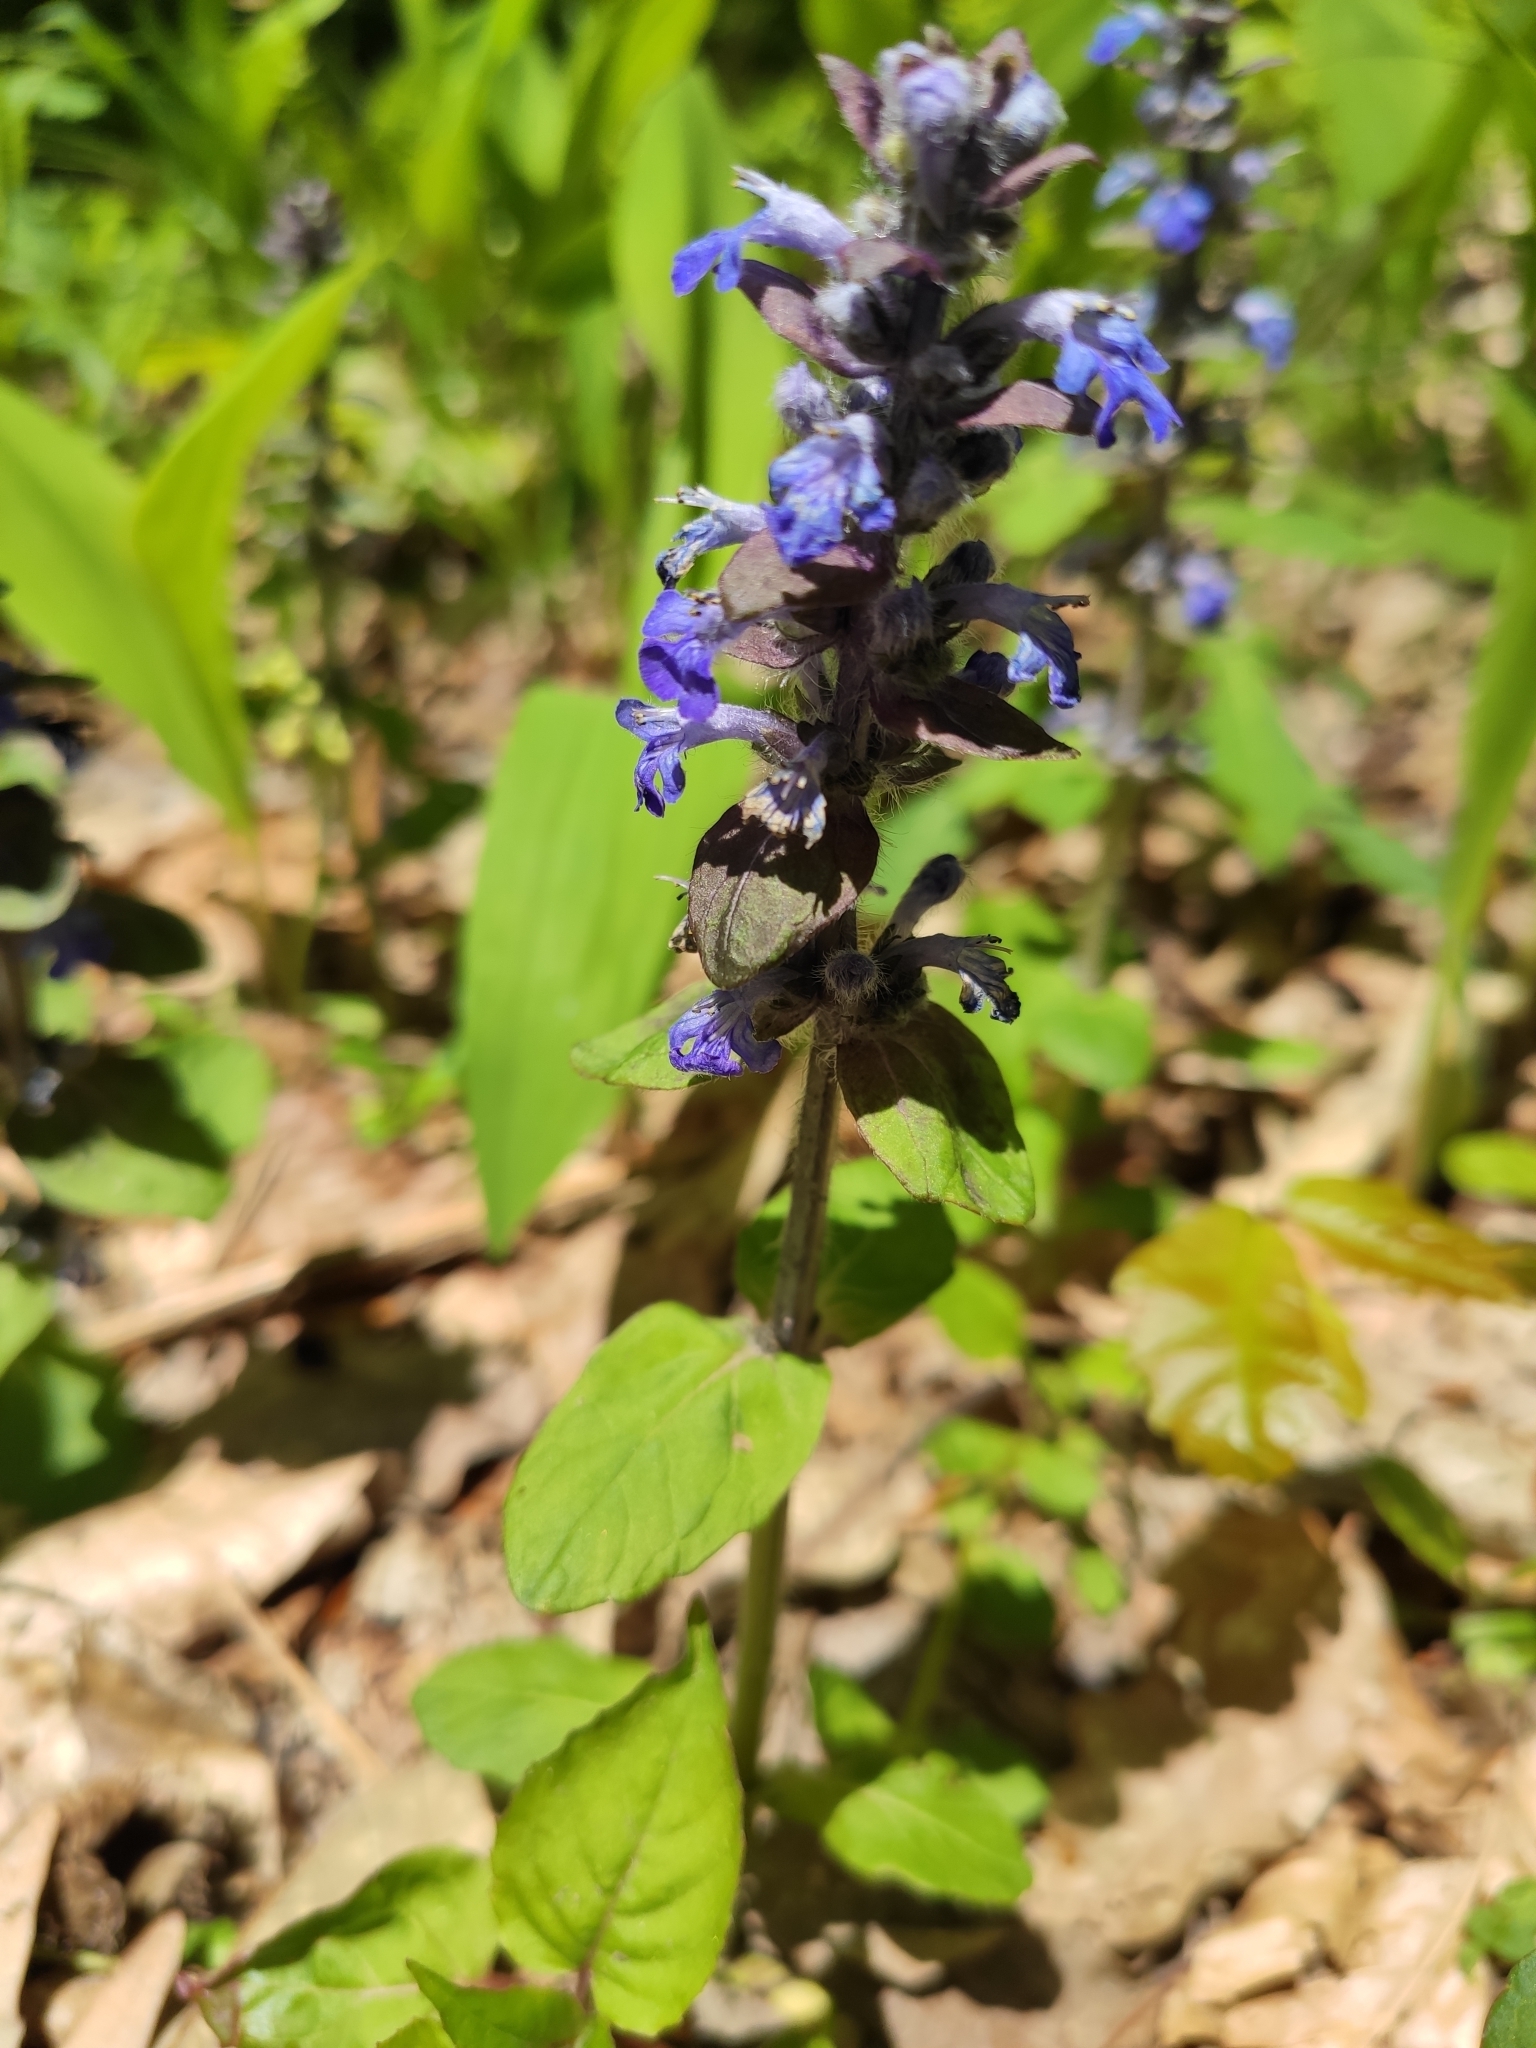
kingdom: Plantae
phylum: Tracheophyta
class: Magnoliopsida
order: Lamiales
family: Lamiaceae
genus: Ajuga
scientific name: Ajuga reptans
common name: Bugle
